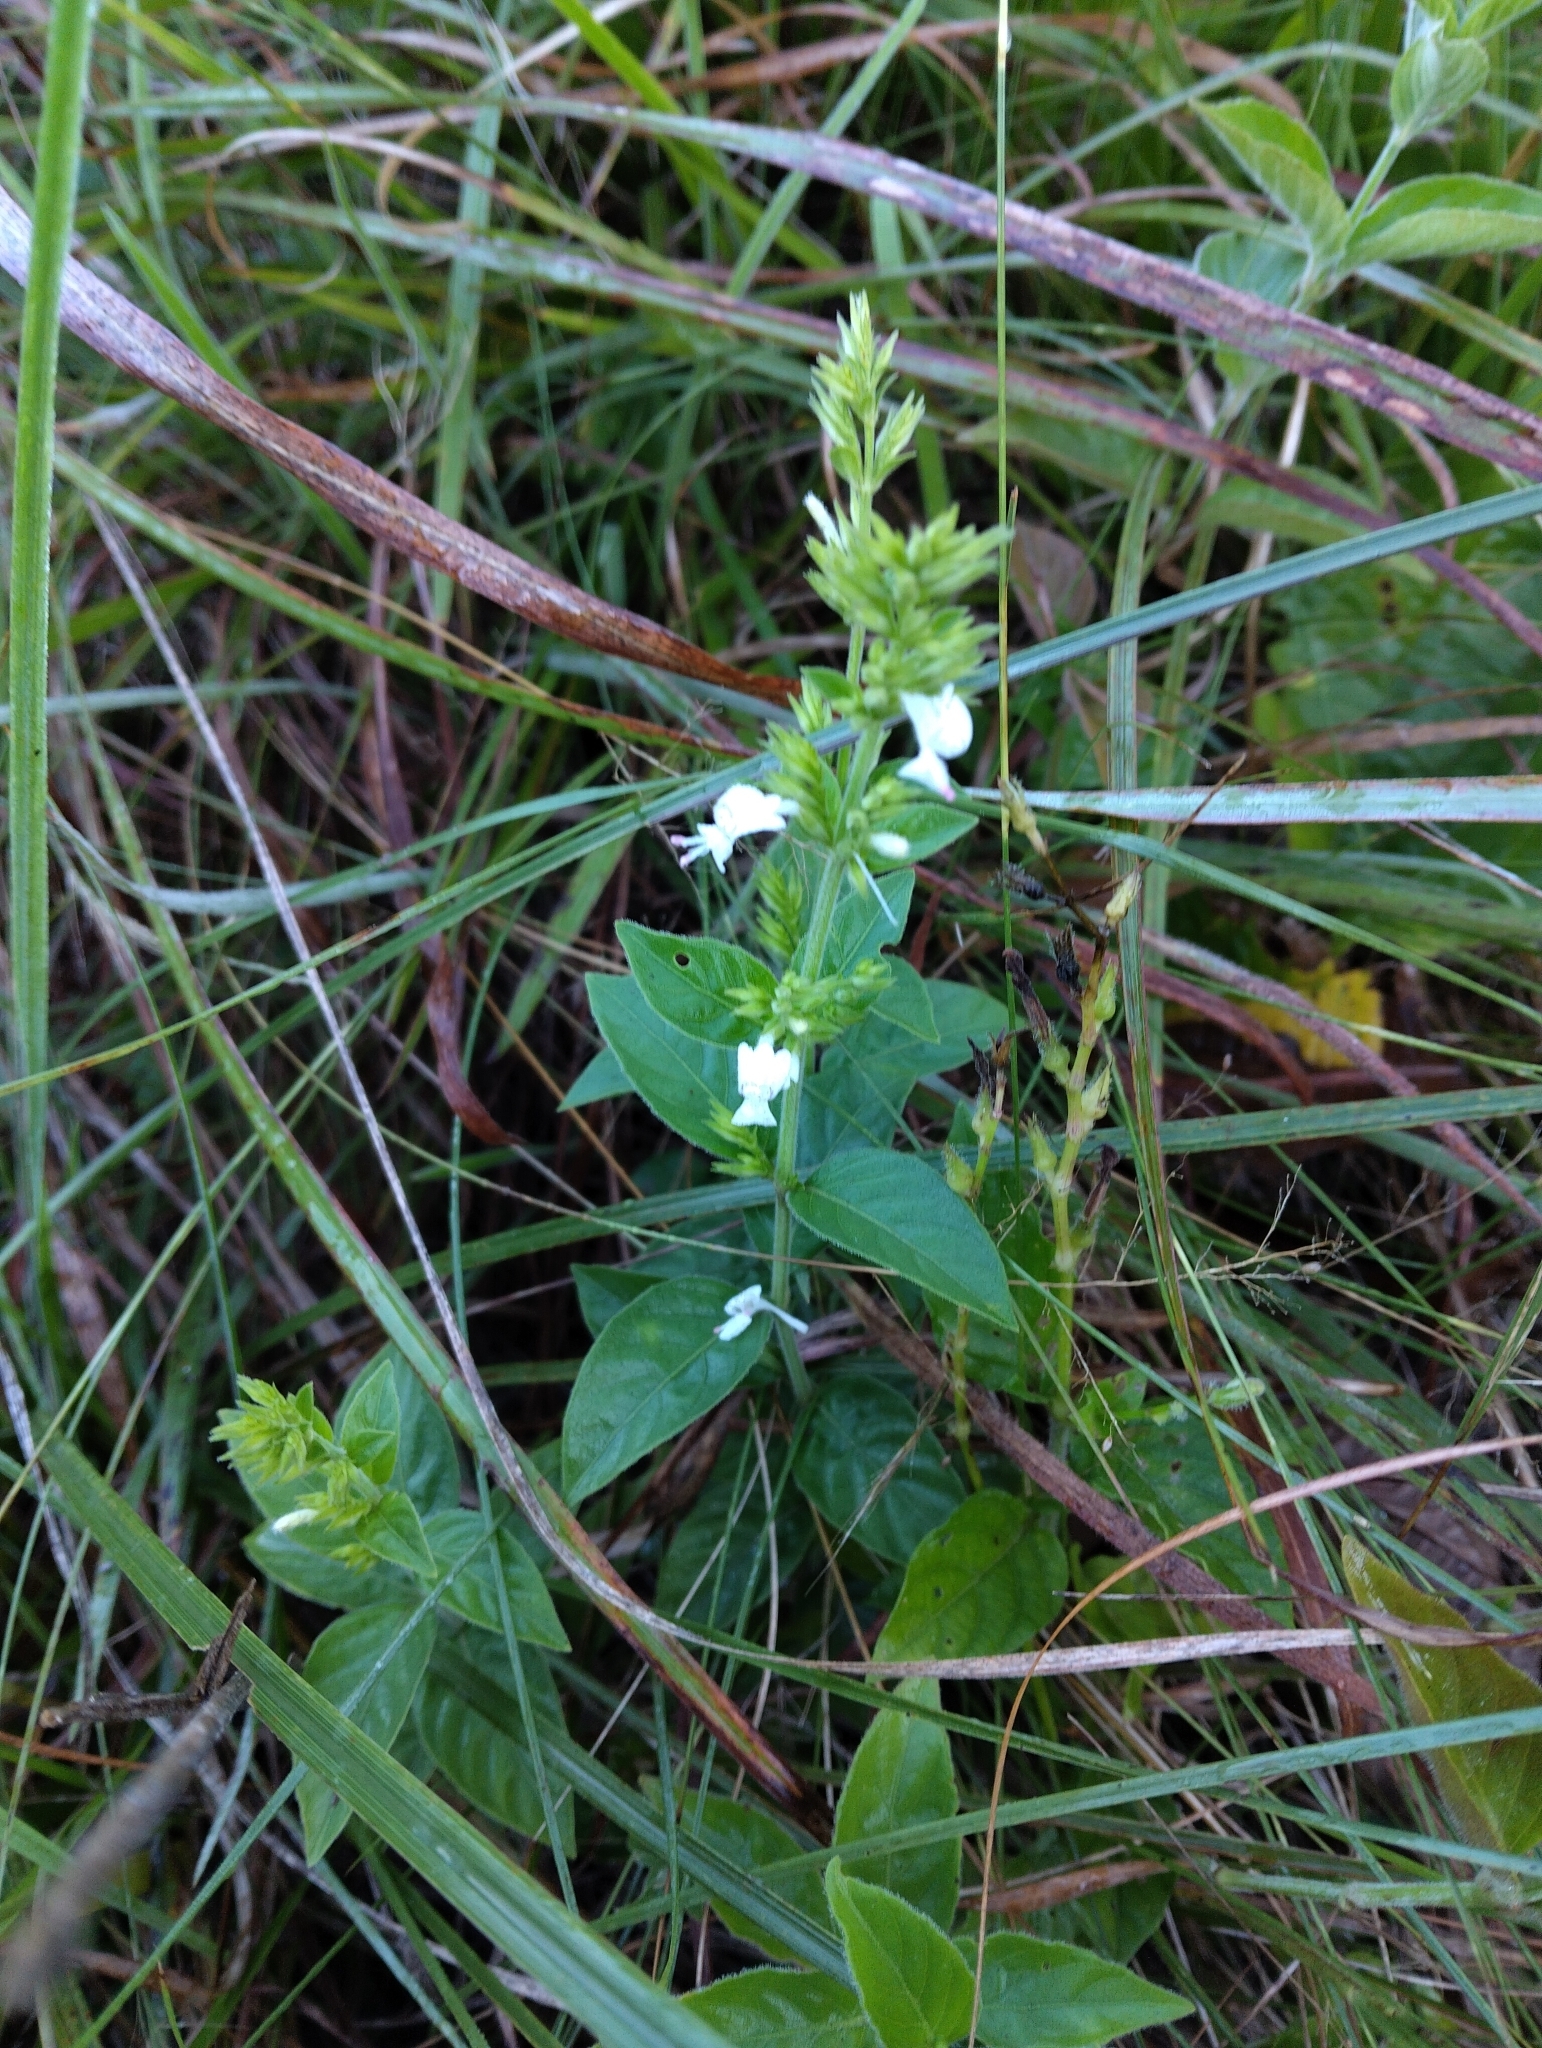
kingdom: Plantae
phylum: Tracheophyta
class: Magnoliopsida
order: Lamiales
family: Acanthaceae
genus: Hypoestes
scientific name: Hypoestes forskaolii
